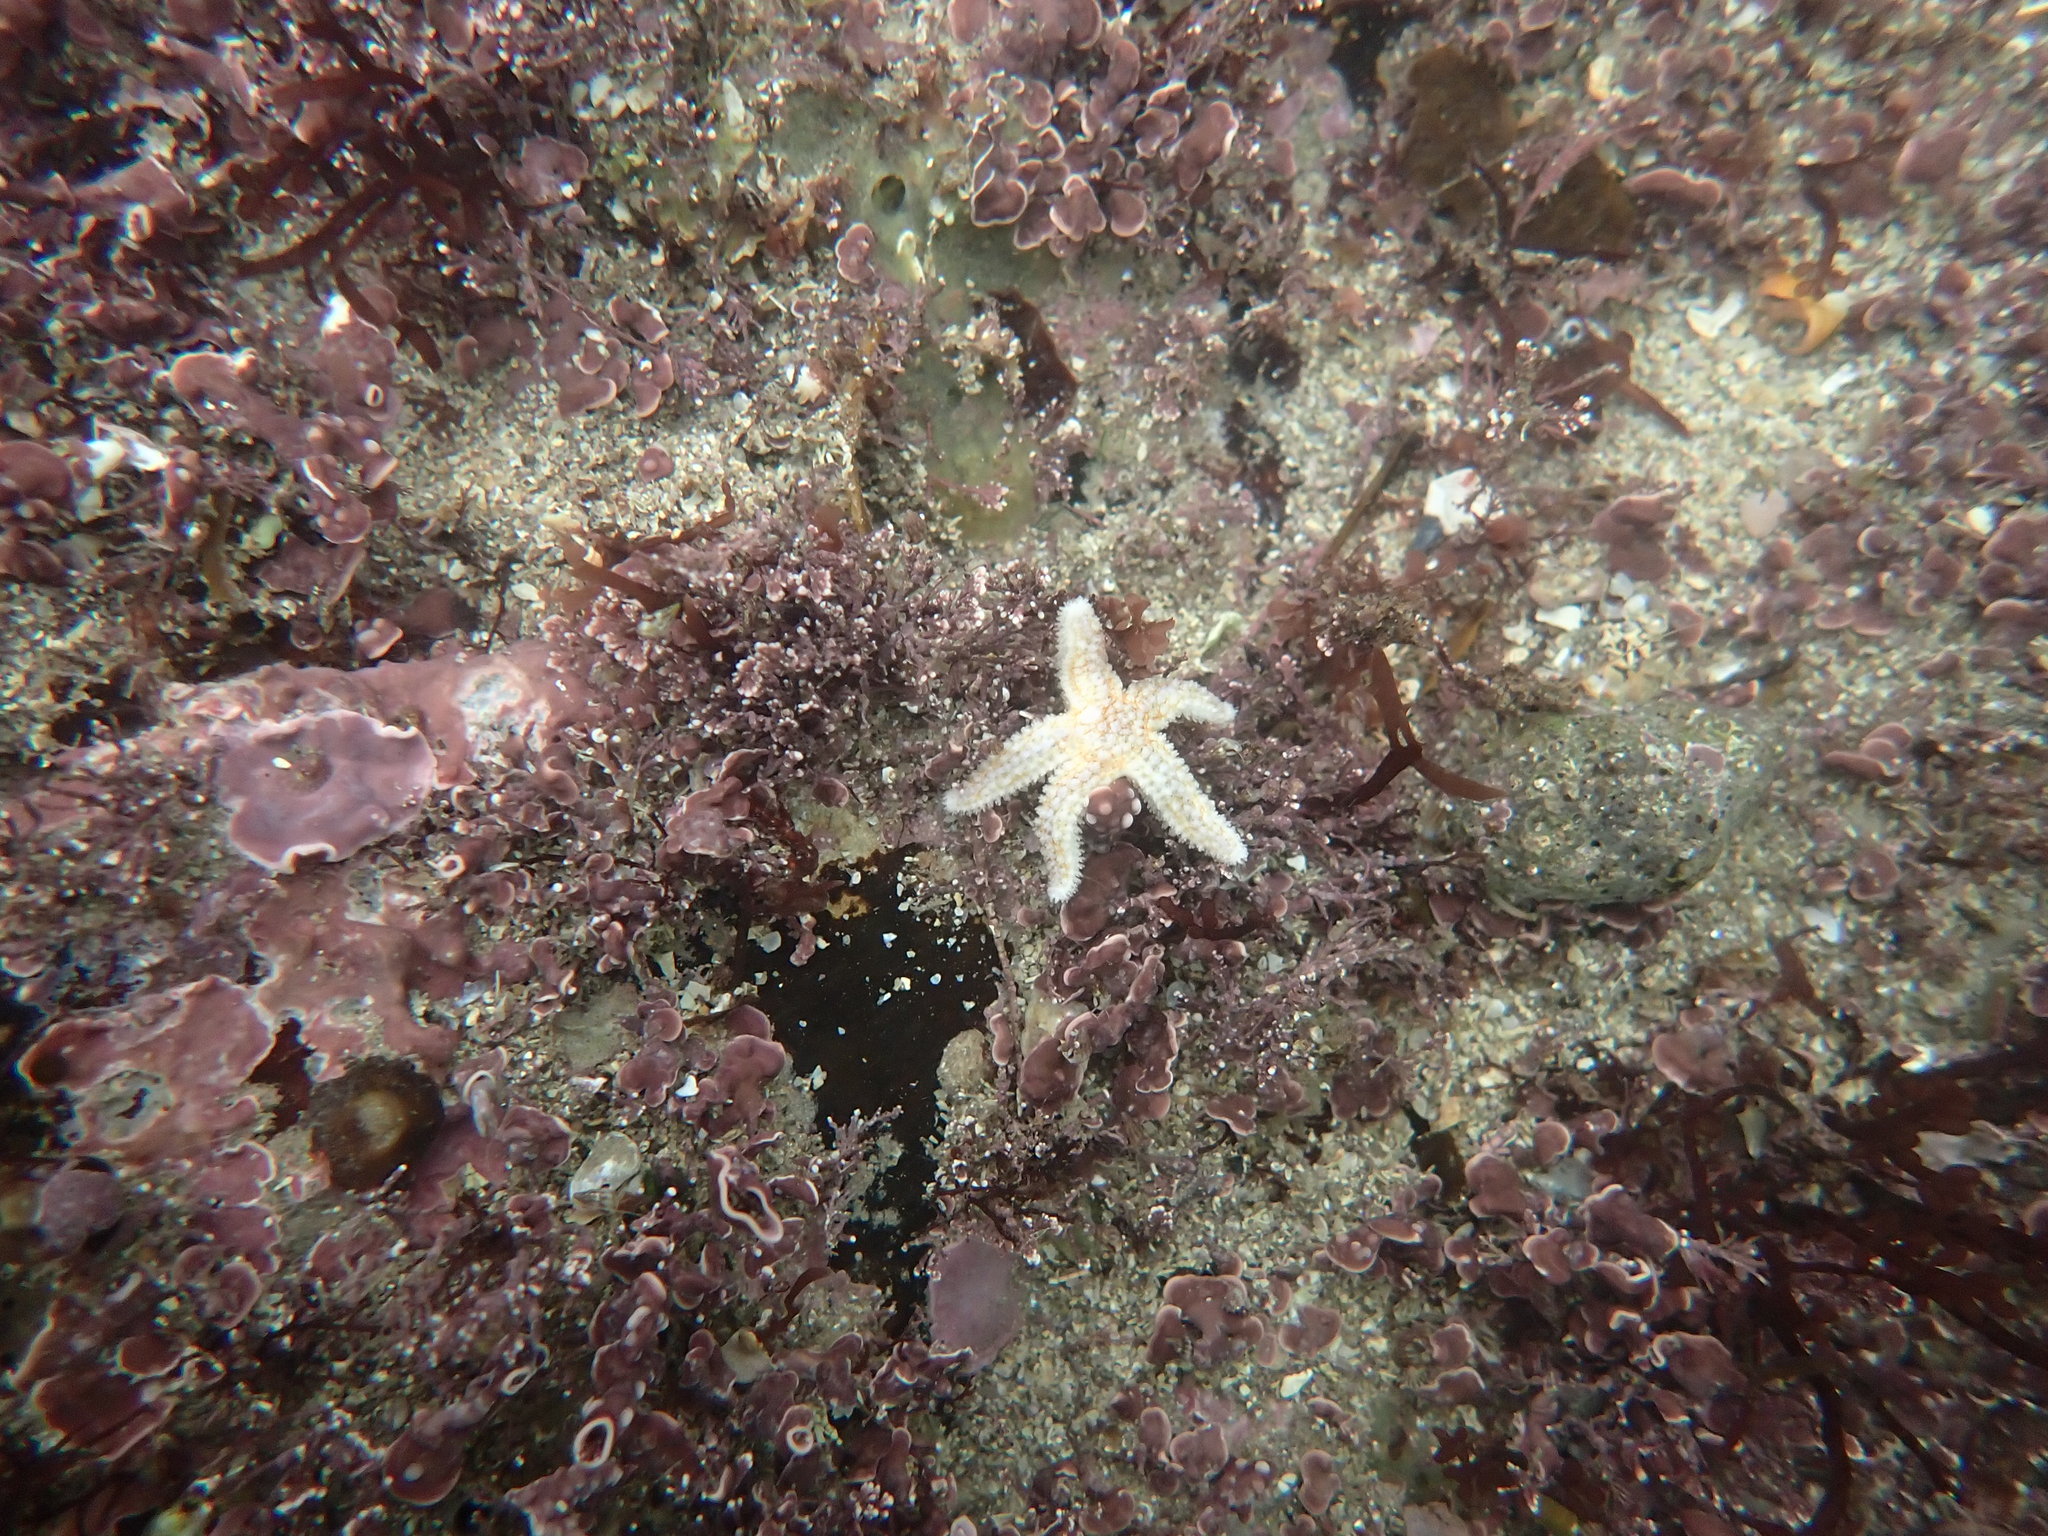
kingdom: Animalia
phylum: Echinodermata
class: Asteroidea
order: Forcipulatida
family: Asteriidae
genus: Marthasterias
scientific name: Marthasterias glacialis
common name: Spiny starfish
